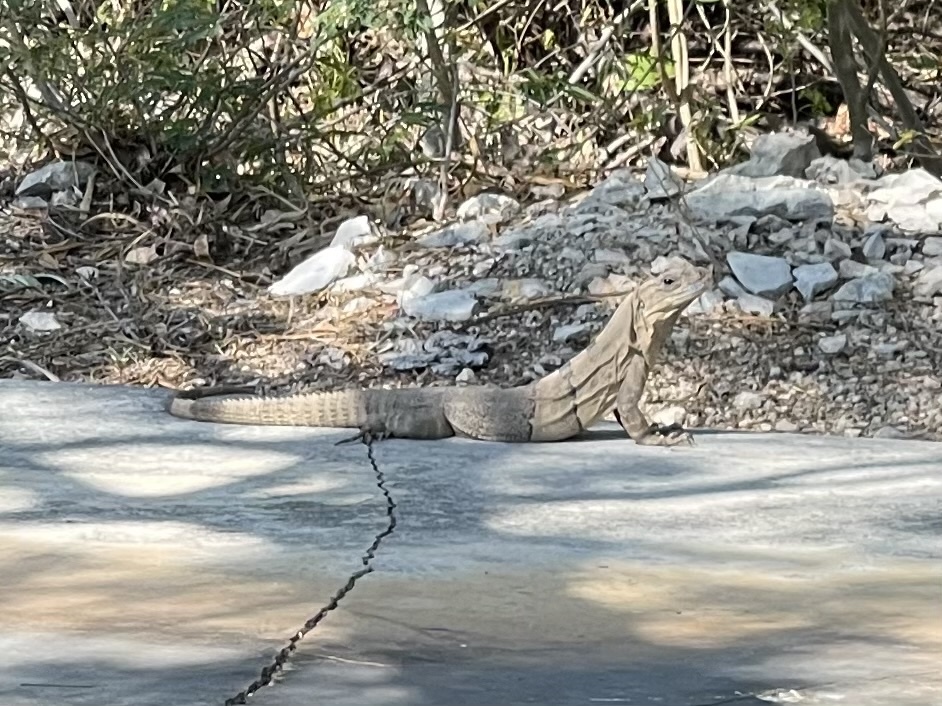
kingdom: Animalia
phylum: Chordata
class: Squamata
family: Iguanidae
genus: Ctenosaura
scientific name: Ctenosaura similis
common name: Black spiny-tailed iguana
